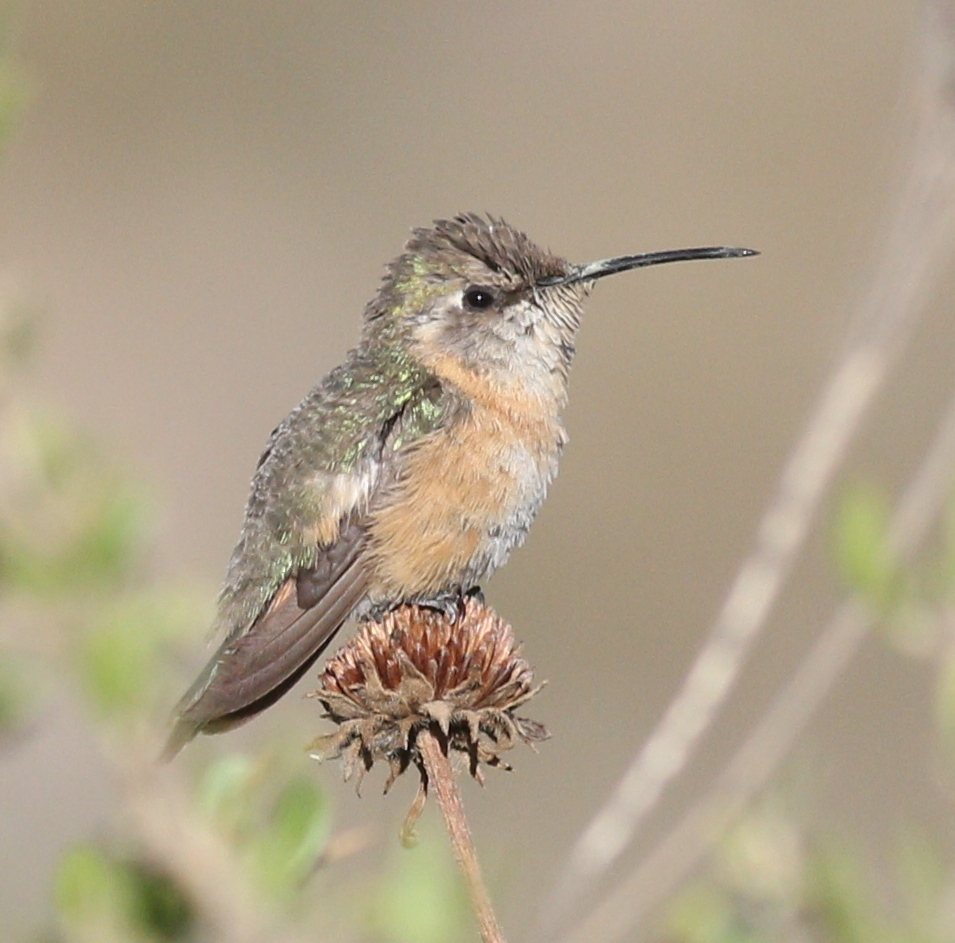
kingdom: Animalia
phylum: Chordata
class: Aves
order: Apodiformes
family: Trochilidae
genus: Myrtis
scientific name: Myrtis fanny
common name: Purple-collared woodstar
